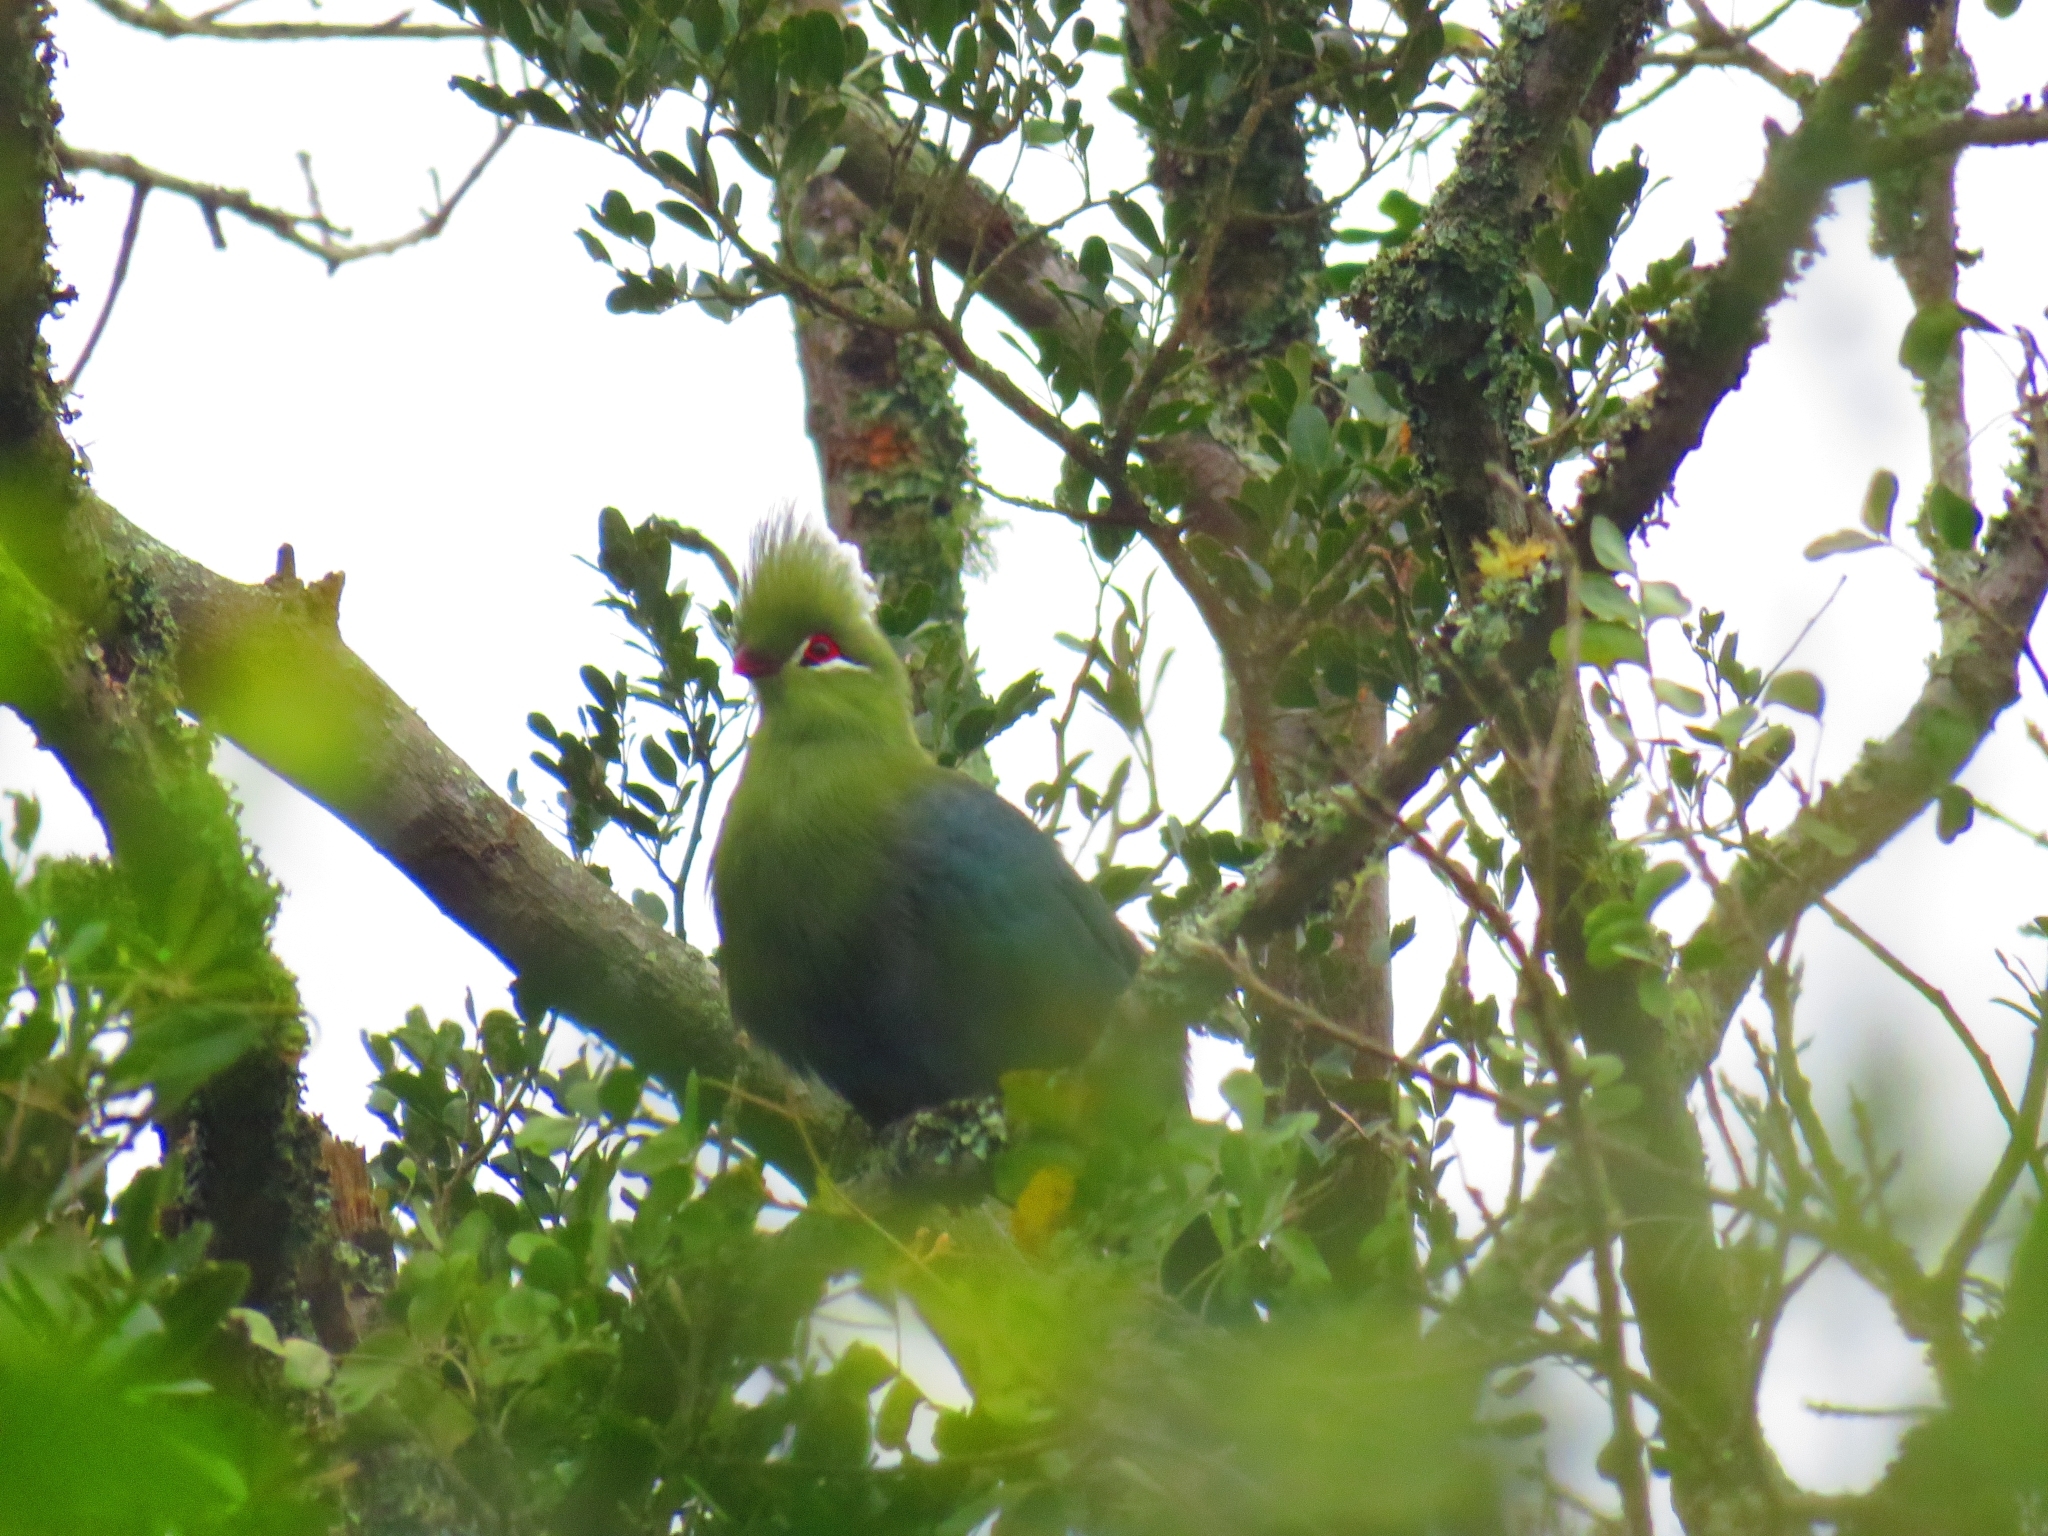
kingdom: Animalia
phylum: Chordata
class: Aves
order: Musophagiformes
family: Musophagidae
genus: Tauraco
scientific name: Tauraco corythaix
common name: Knysna turaco
